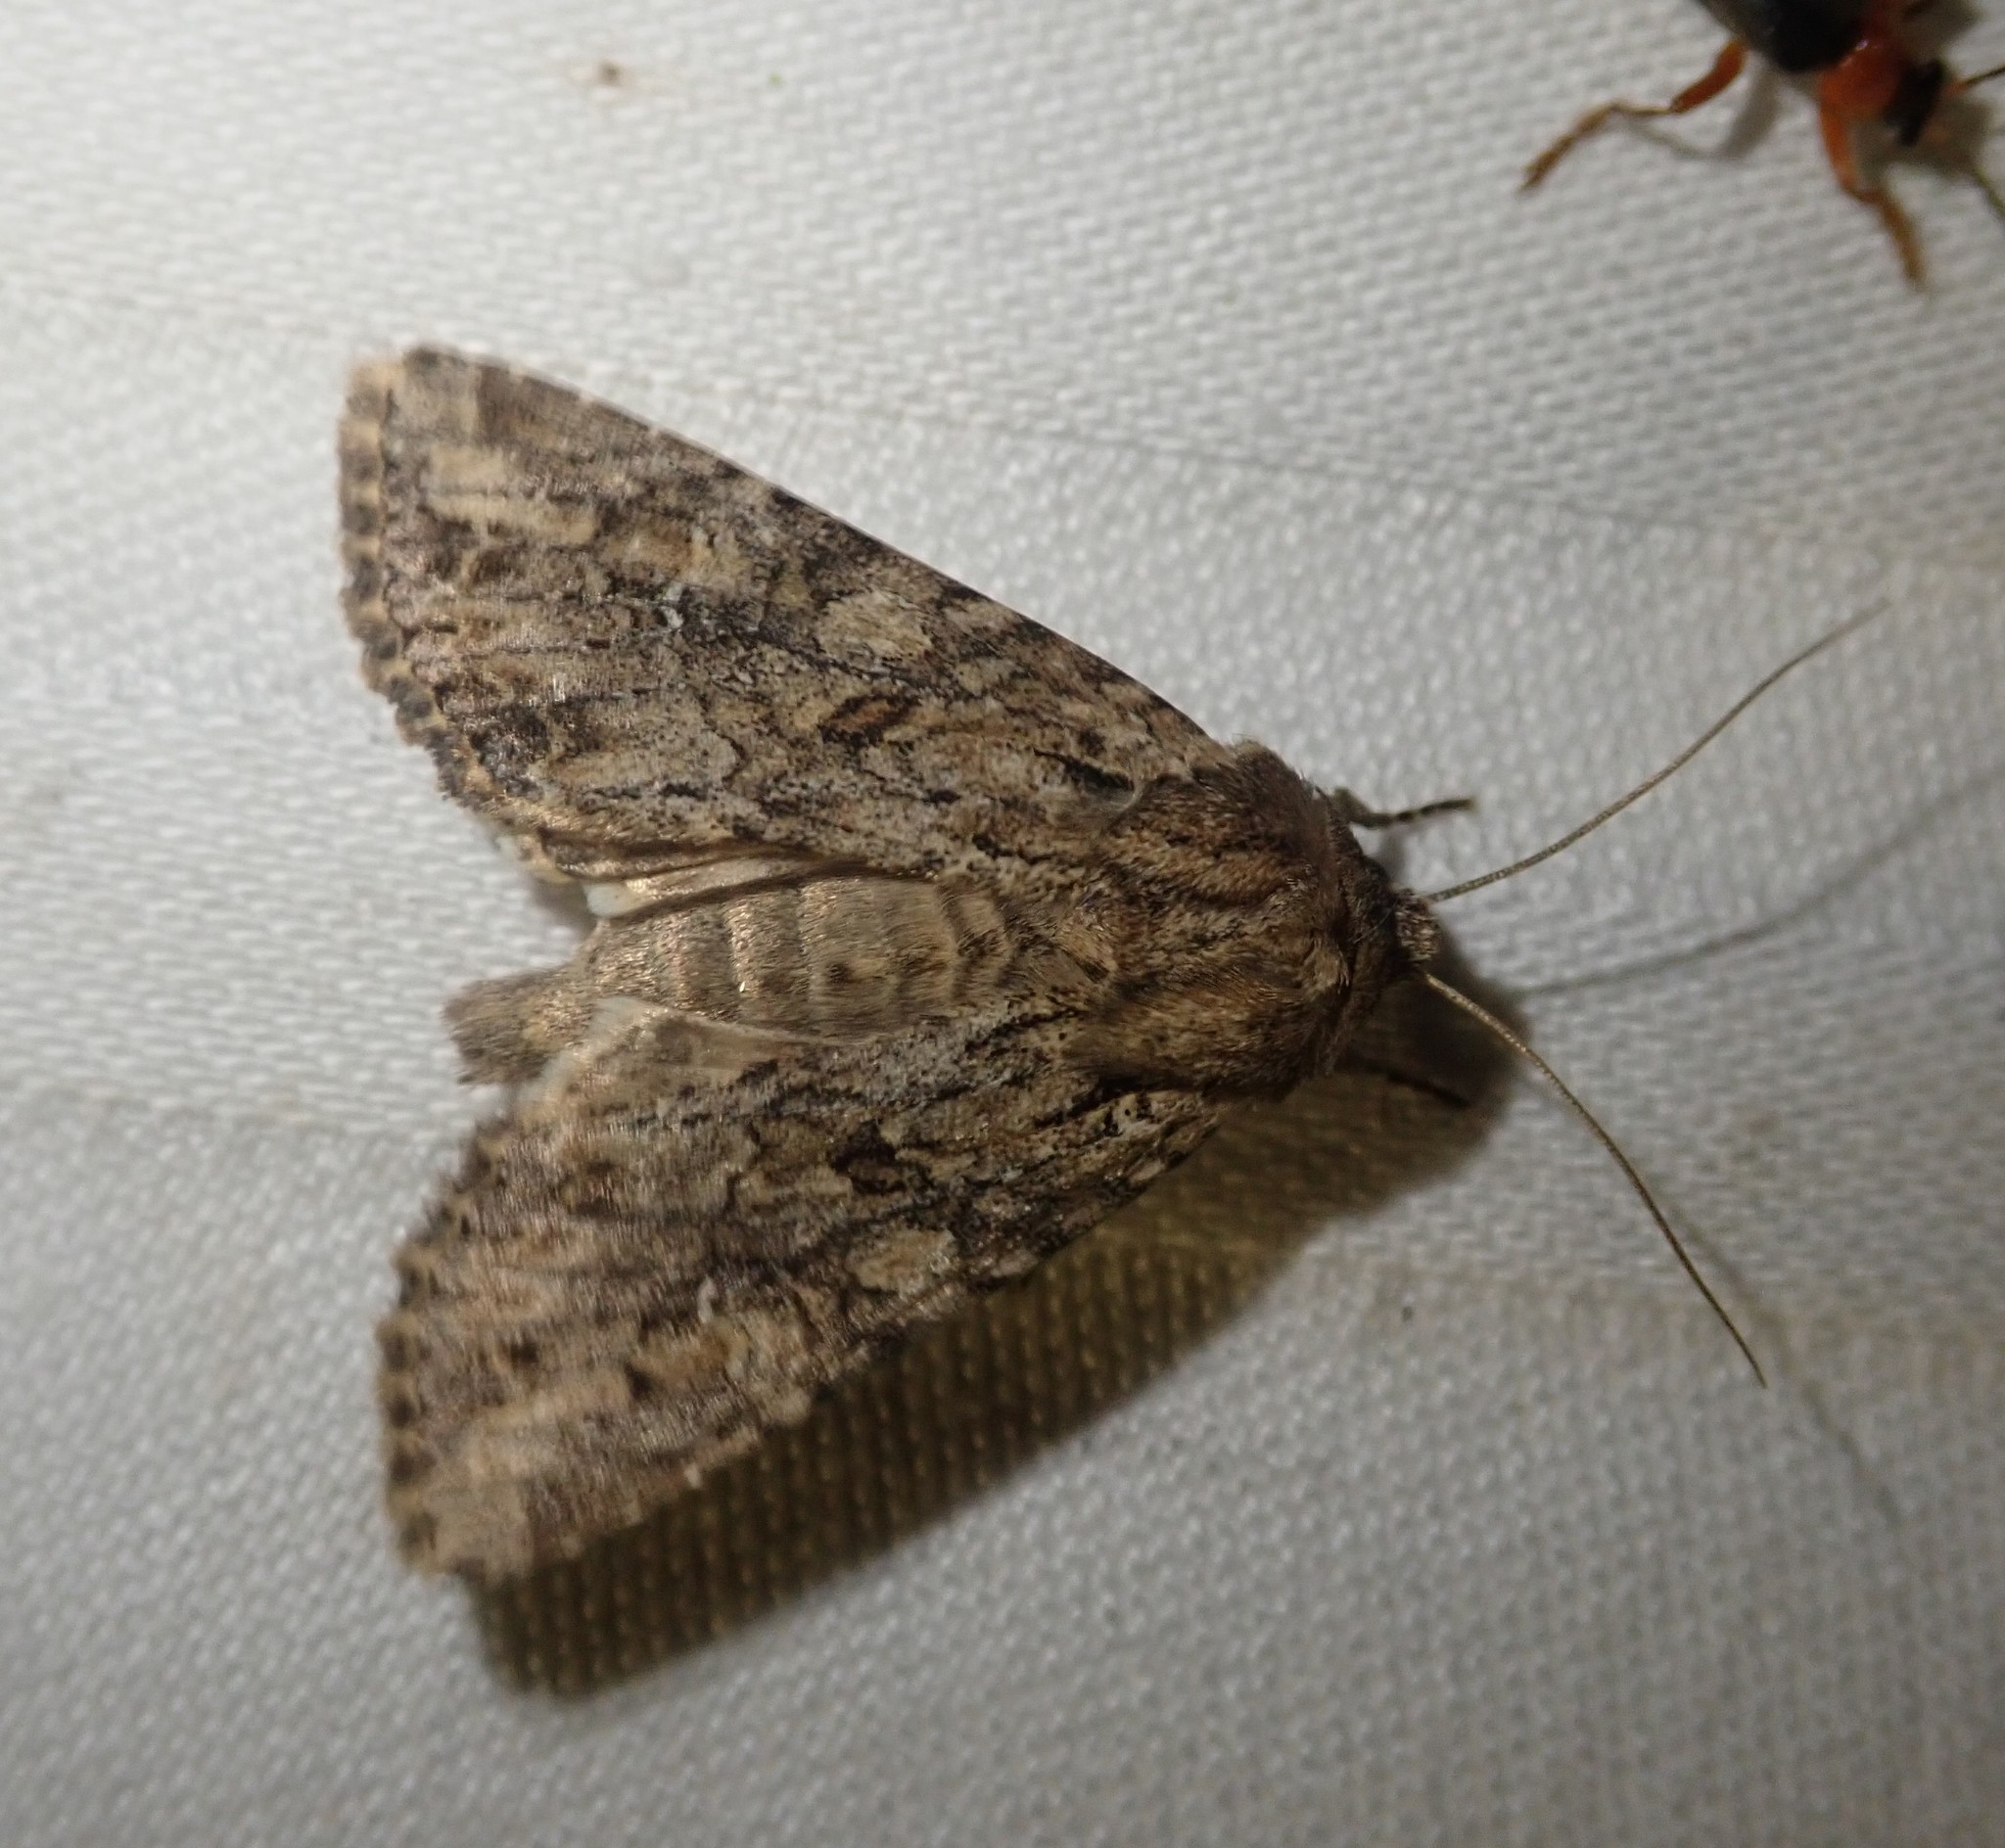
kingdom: Animalia
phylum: Arthropoda
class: Insecta
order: Lepidoptera
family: Noctuidae
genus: Apamea
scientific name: Apamea anceps
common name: Large nutmeg
